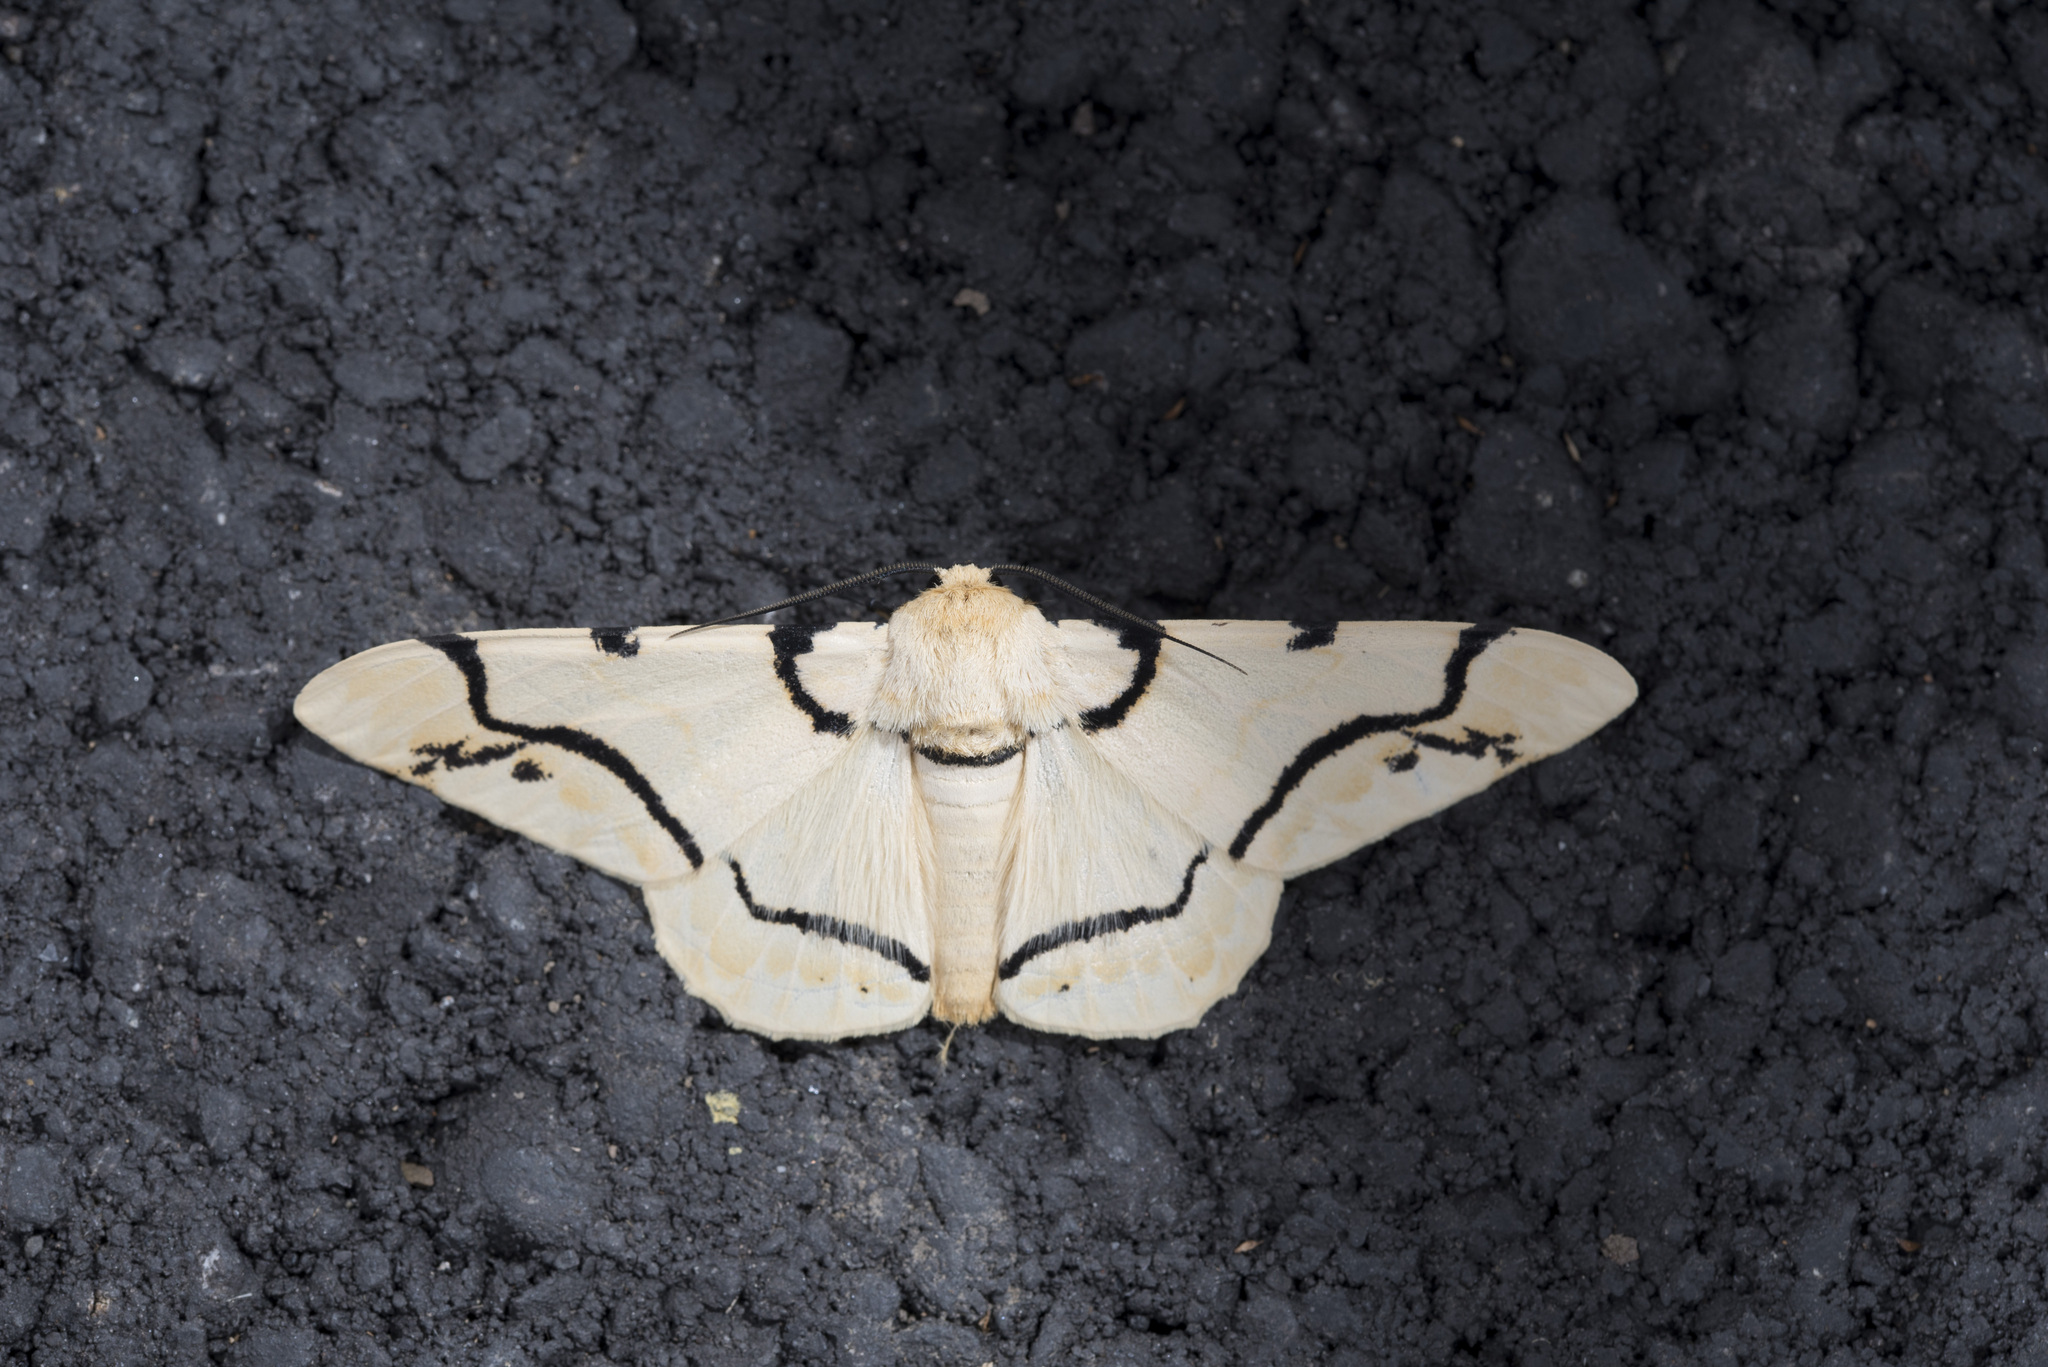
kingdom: Animalia
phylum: Arthropoda
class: Insecta
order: Lepidoptera
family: Geometridae
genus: Biston
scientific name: Biston perclara
